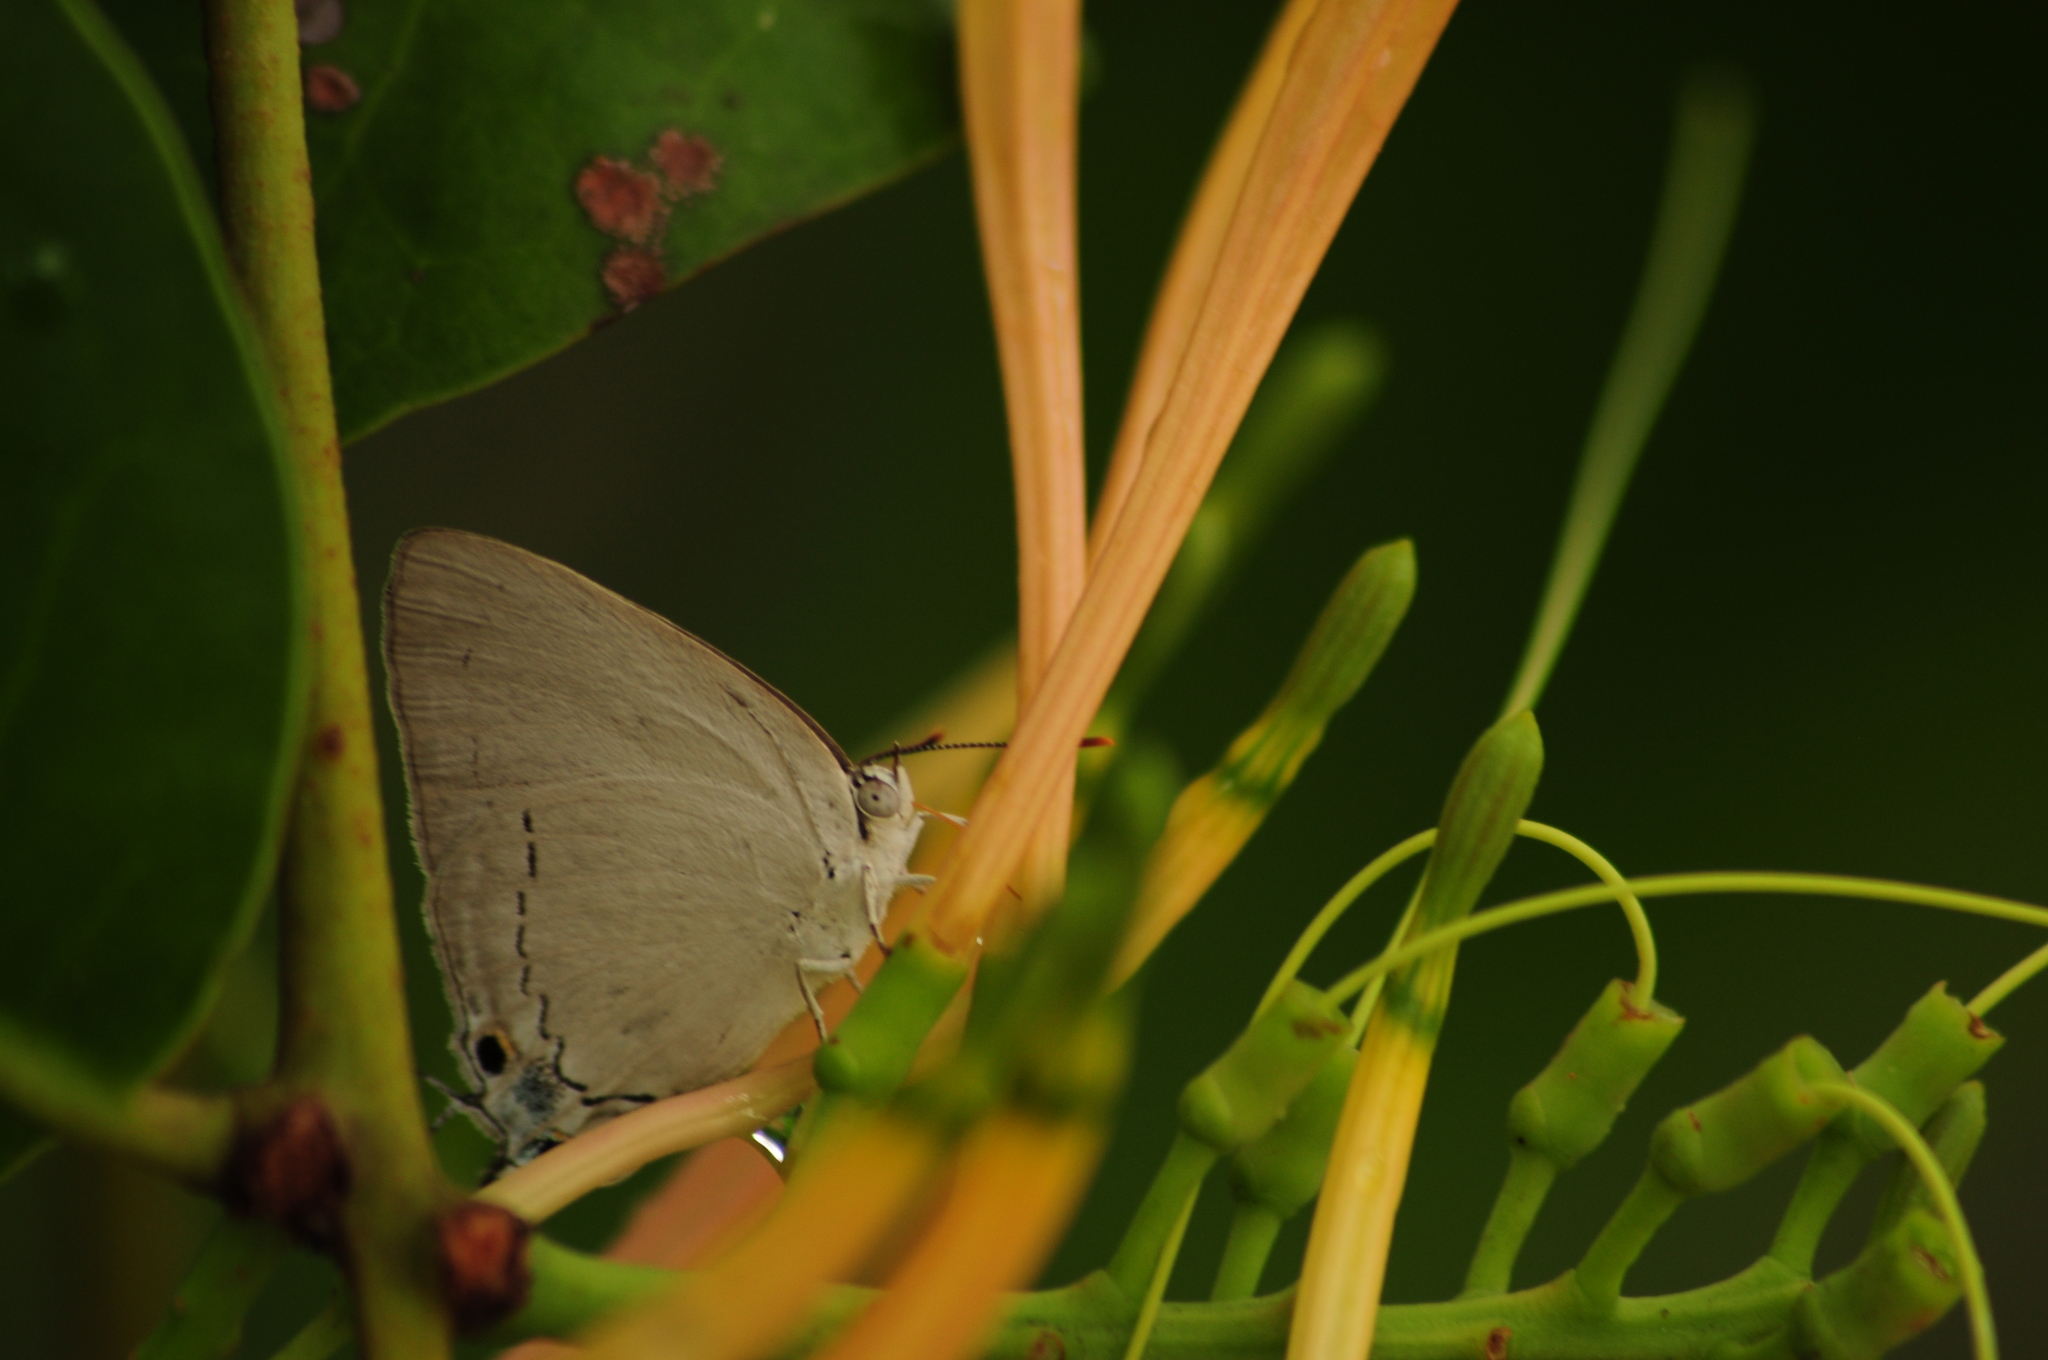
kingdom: Animalia
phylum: Arthropoda
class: Insecta
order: Lepidoptera
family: Lycaenidae
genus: Tajuria
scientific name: Tajuria jehana
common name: Plains blue royal
